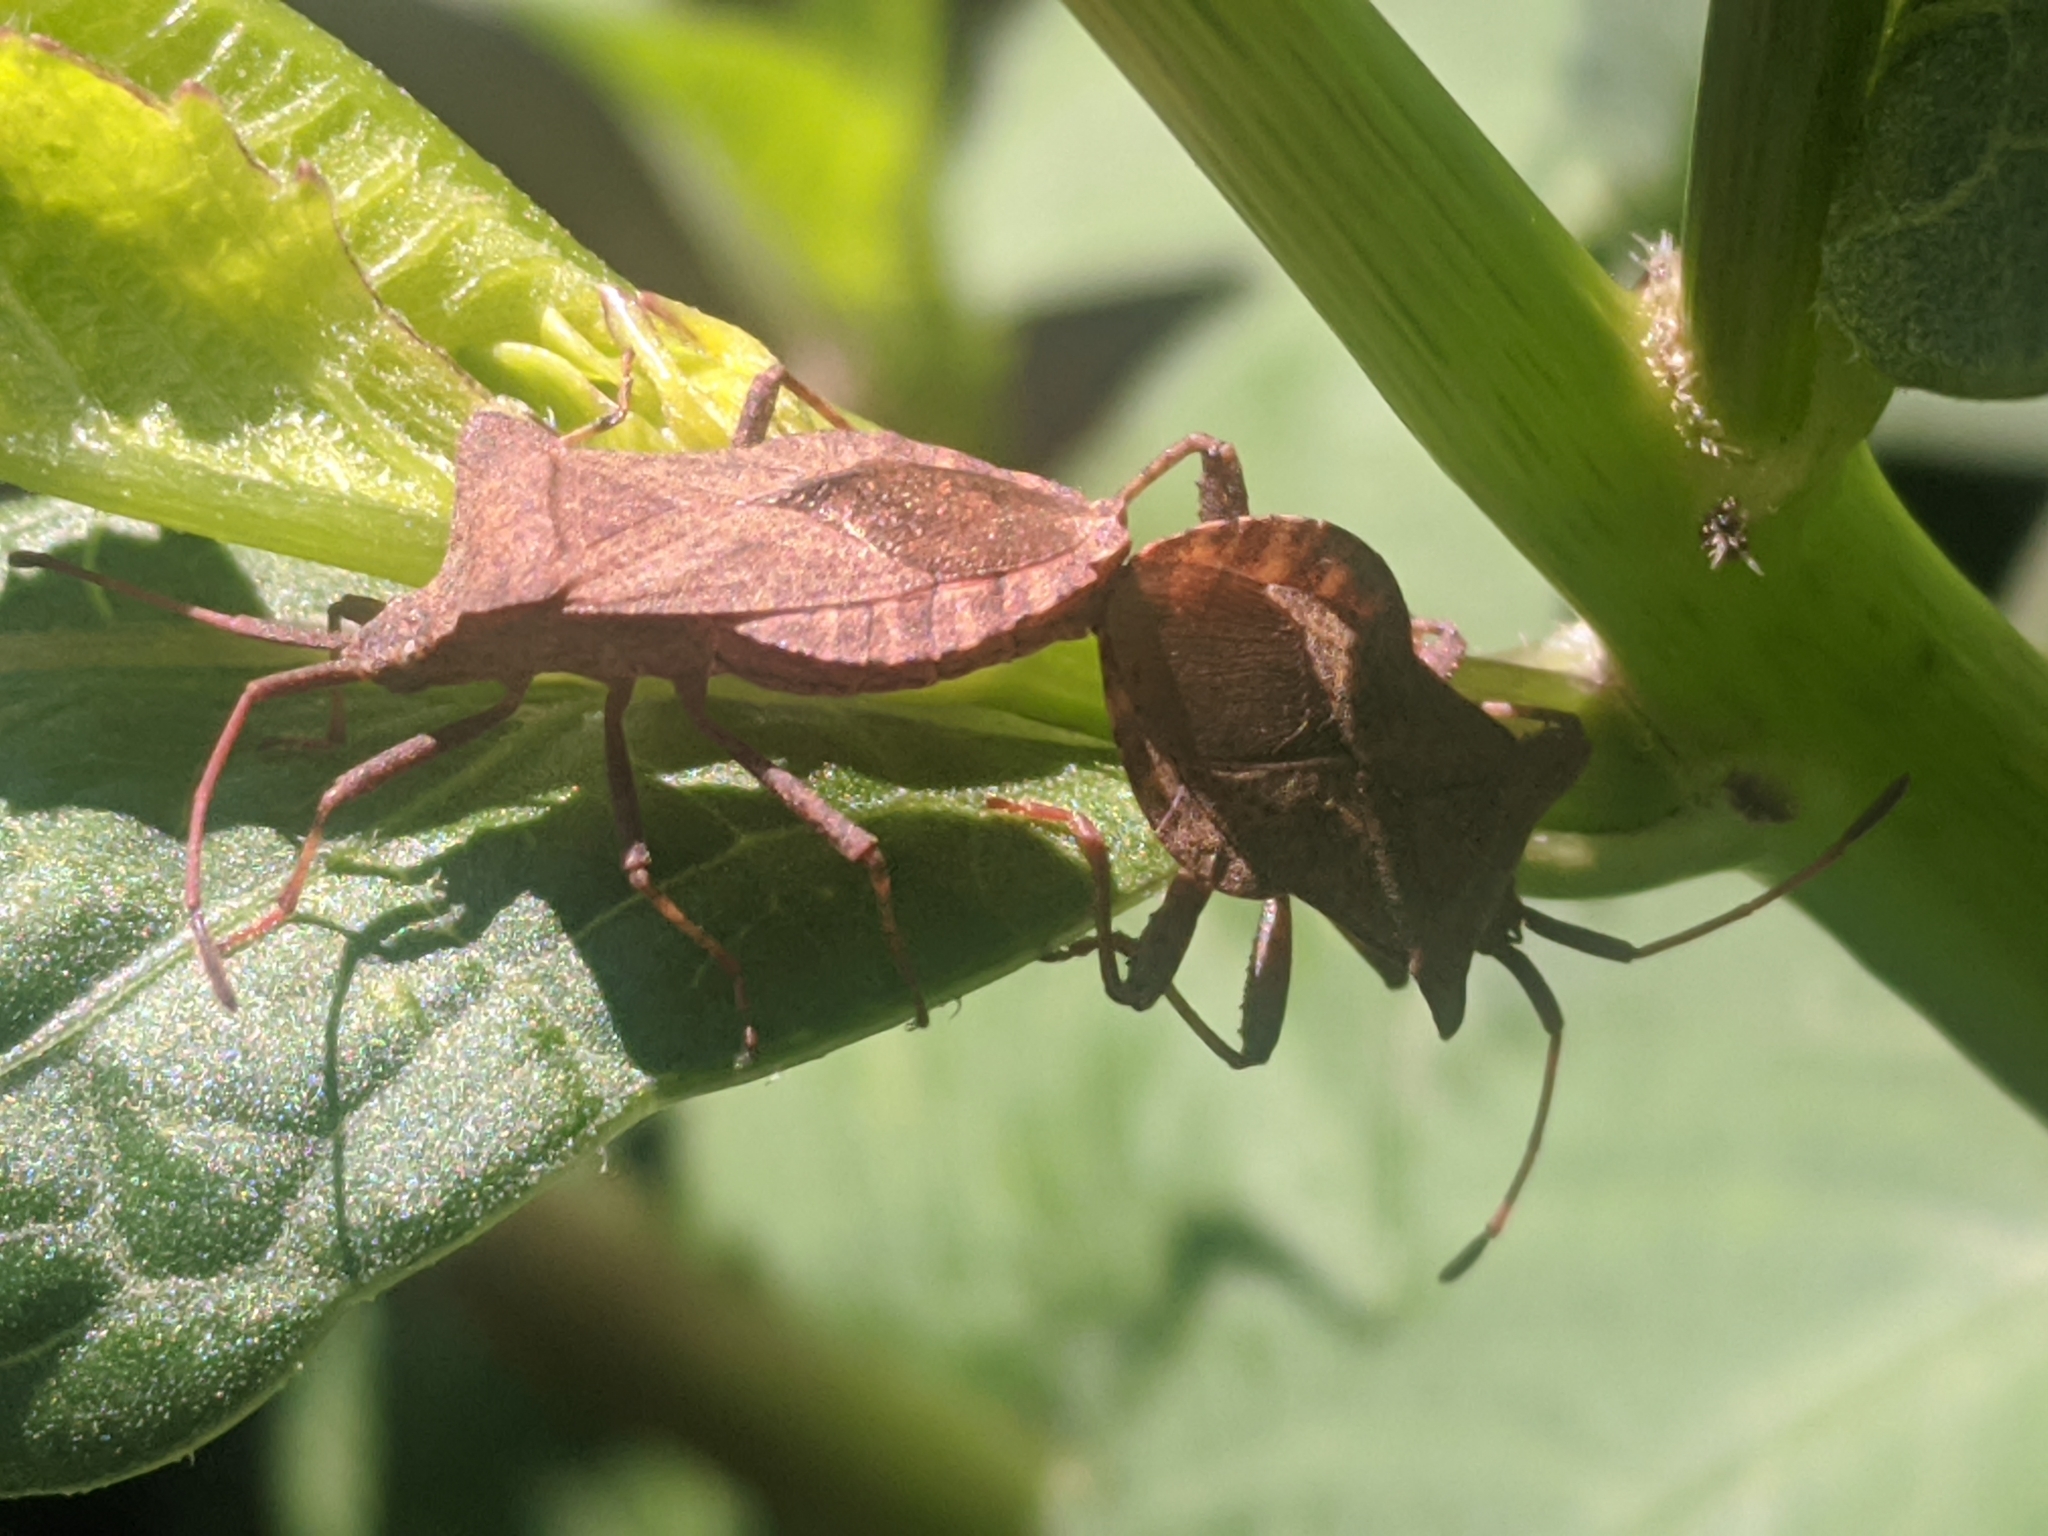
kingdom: Animalia
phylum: Arthropoda
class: Insecta
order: Hemiptera
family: Coreidae
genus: Coreus
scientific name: Coreus marginatus
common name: Dock bug
